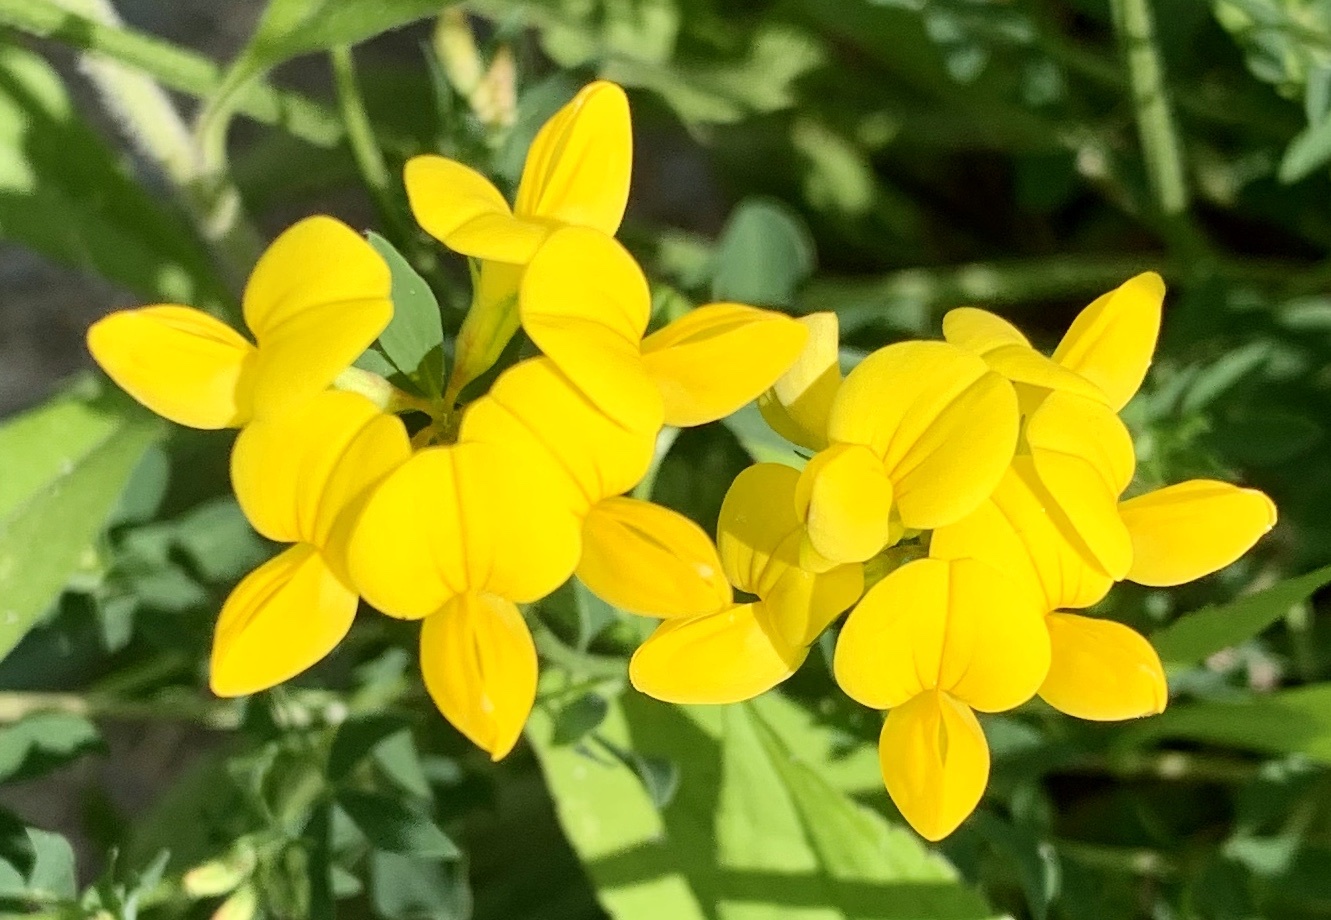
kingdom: Plantae
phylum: Tracheophyta
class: Magnoliopsida
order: Fabales
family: Fabaceae
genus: Lotus
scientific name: Lotus corniculatus
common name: Common bird's-foot-trefoil
